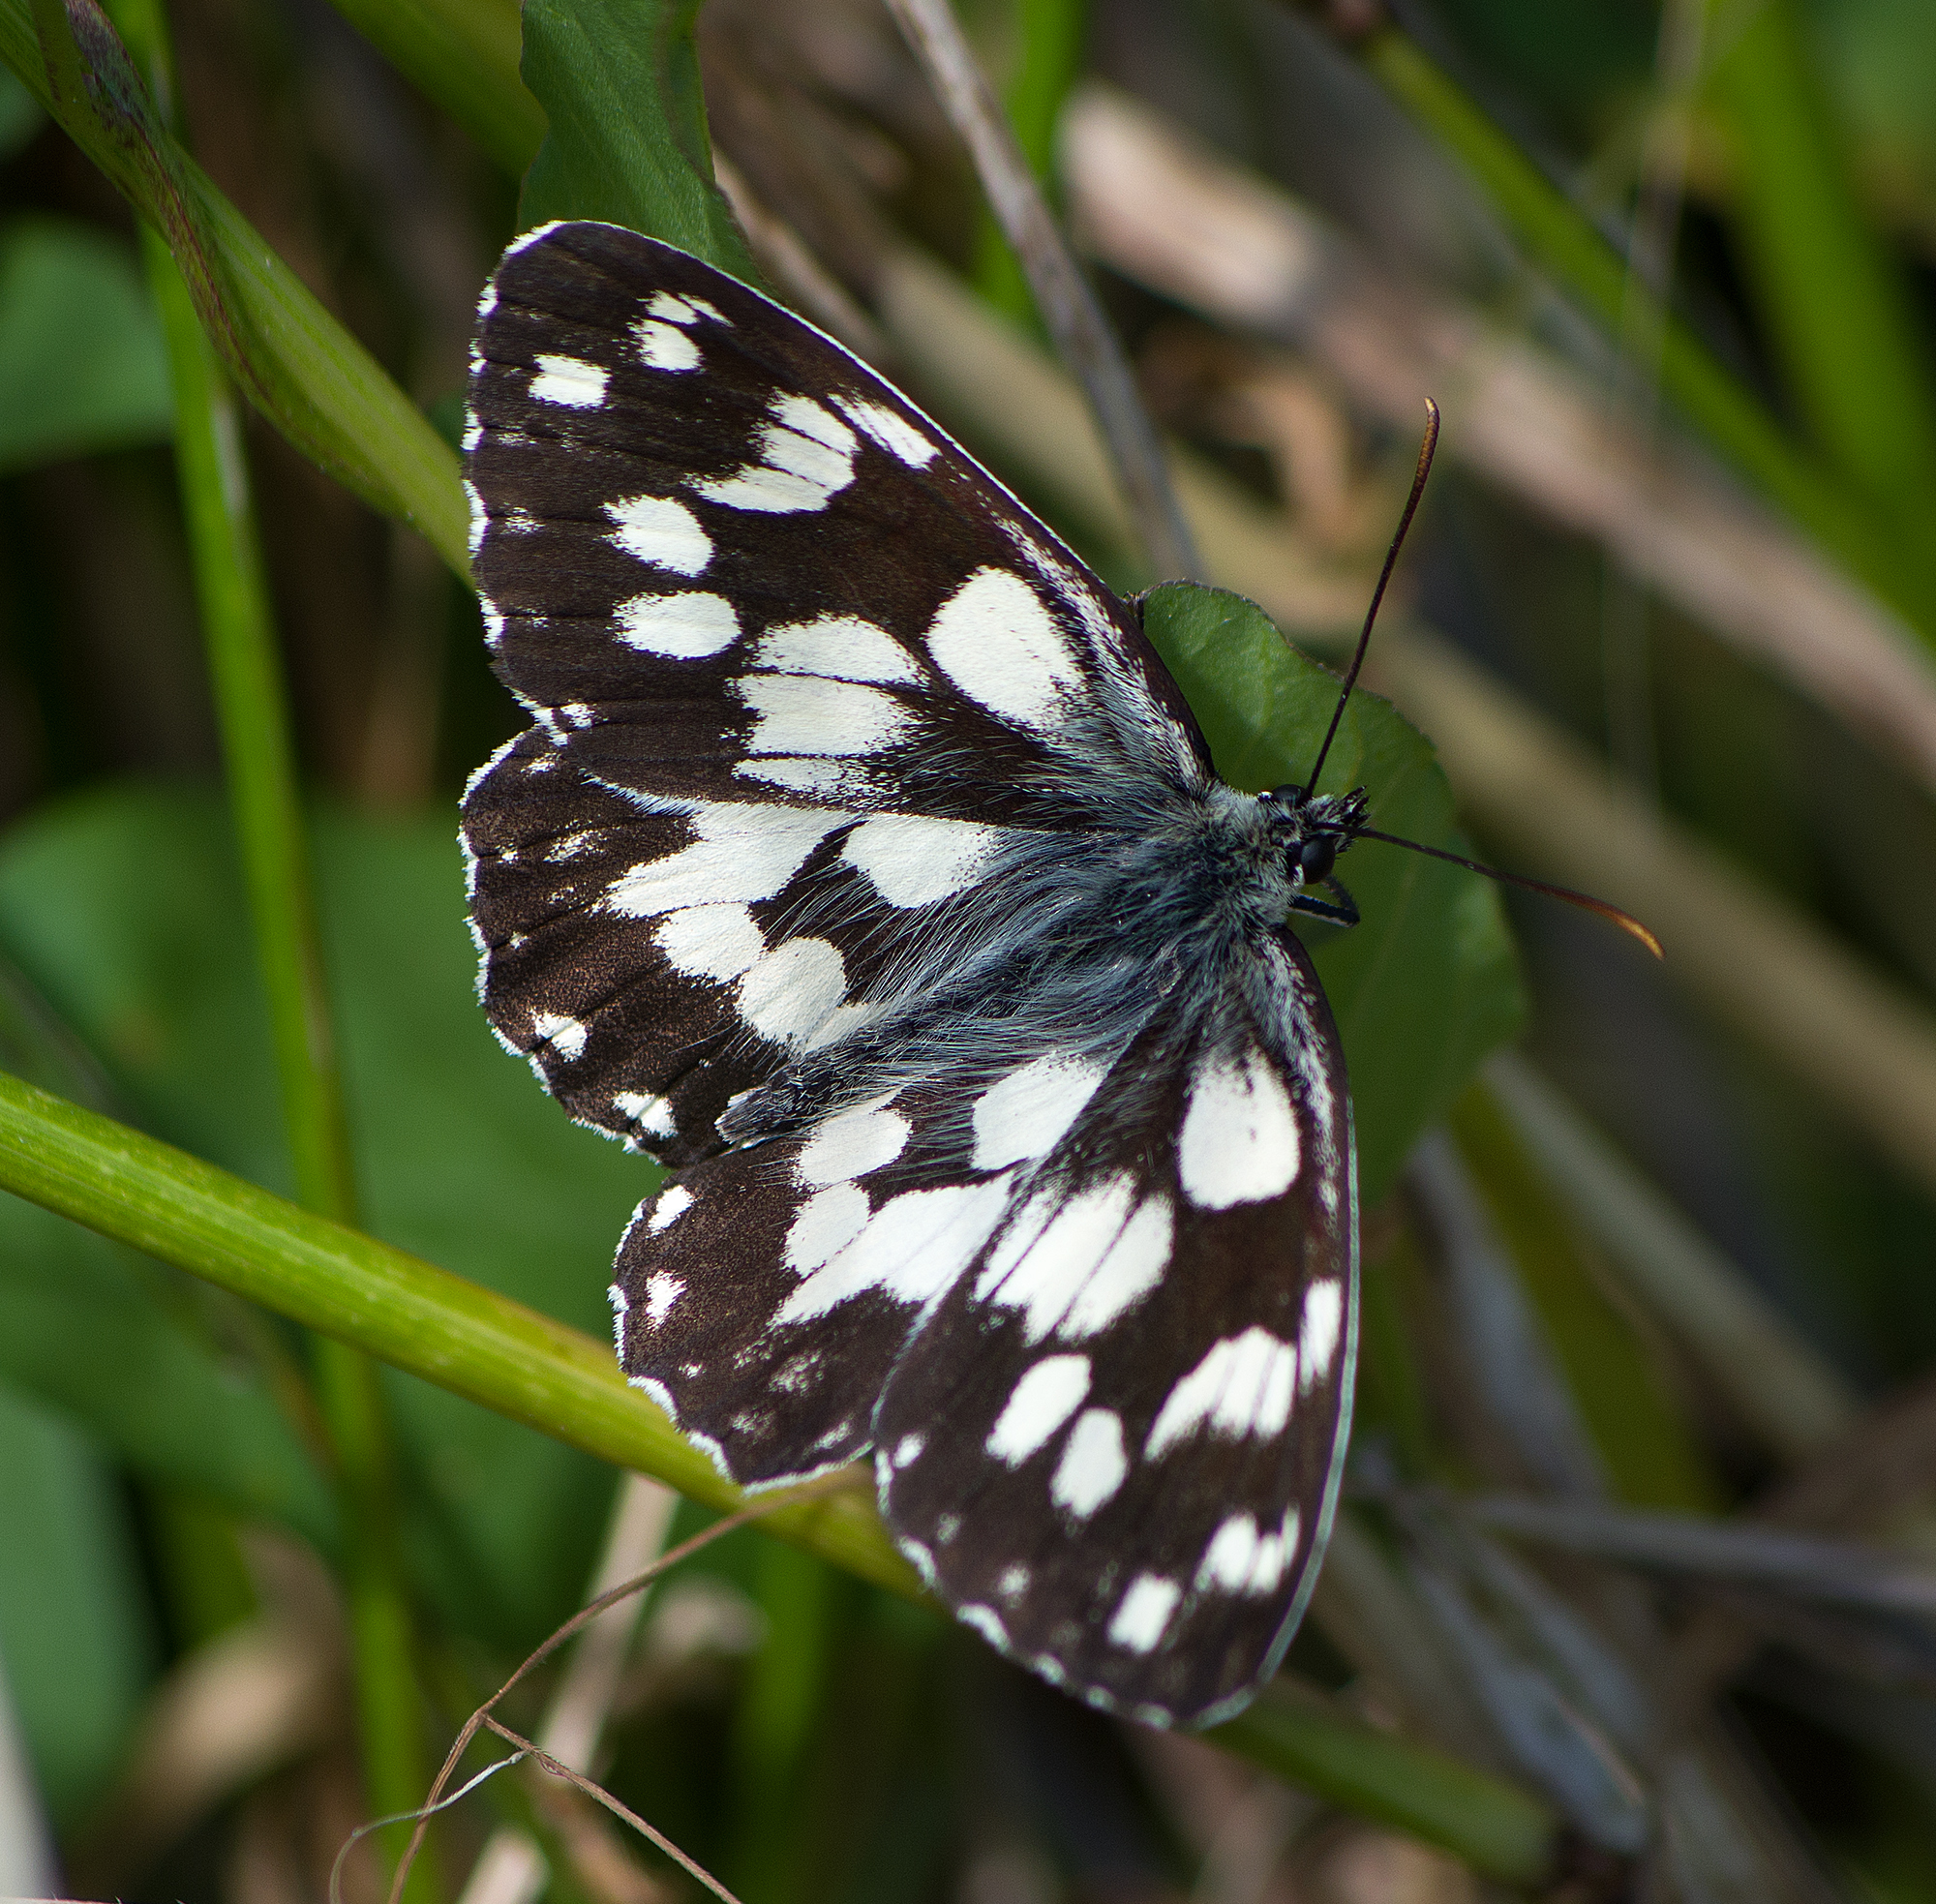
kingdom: Animalia
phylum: Arthropoda
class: Insecta
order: Lepidoptera
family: Nymphalidae
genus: Melanargia
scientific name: Melanargia galathea
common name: Marbled white
